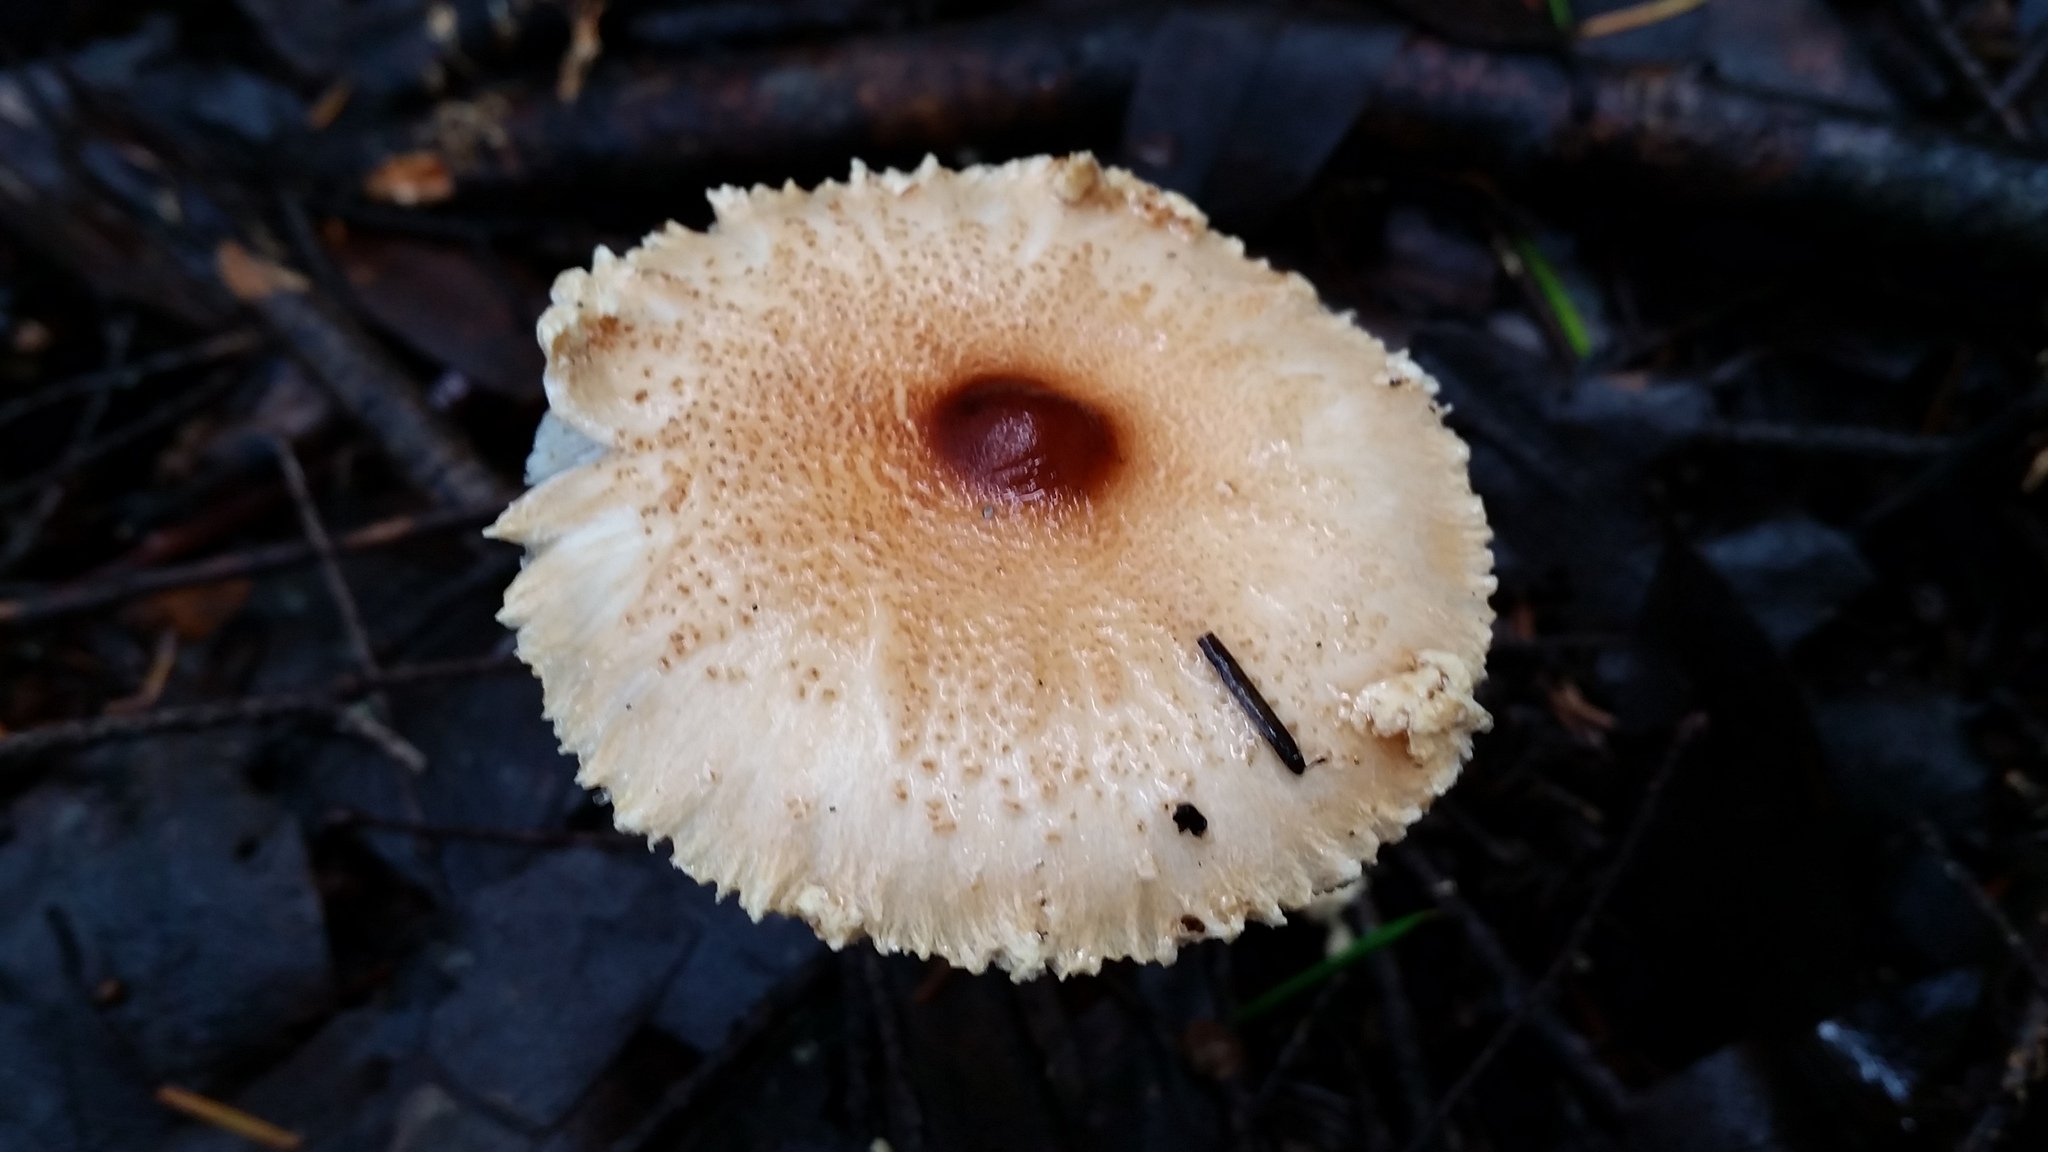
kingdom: Fungi
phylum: Basidiomycota
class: Agaricomycetes
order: Agaricales
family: Agaricaceae
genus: Lepiota
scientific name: Lepiota magnispora
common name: Yellowfoot dapperling
